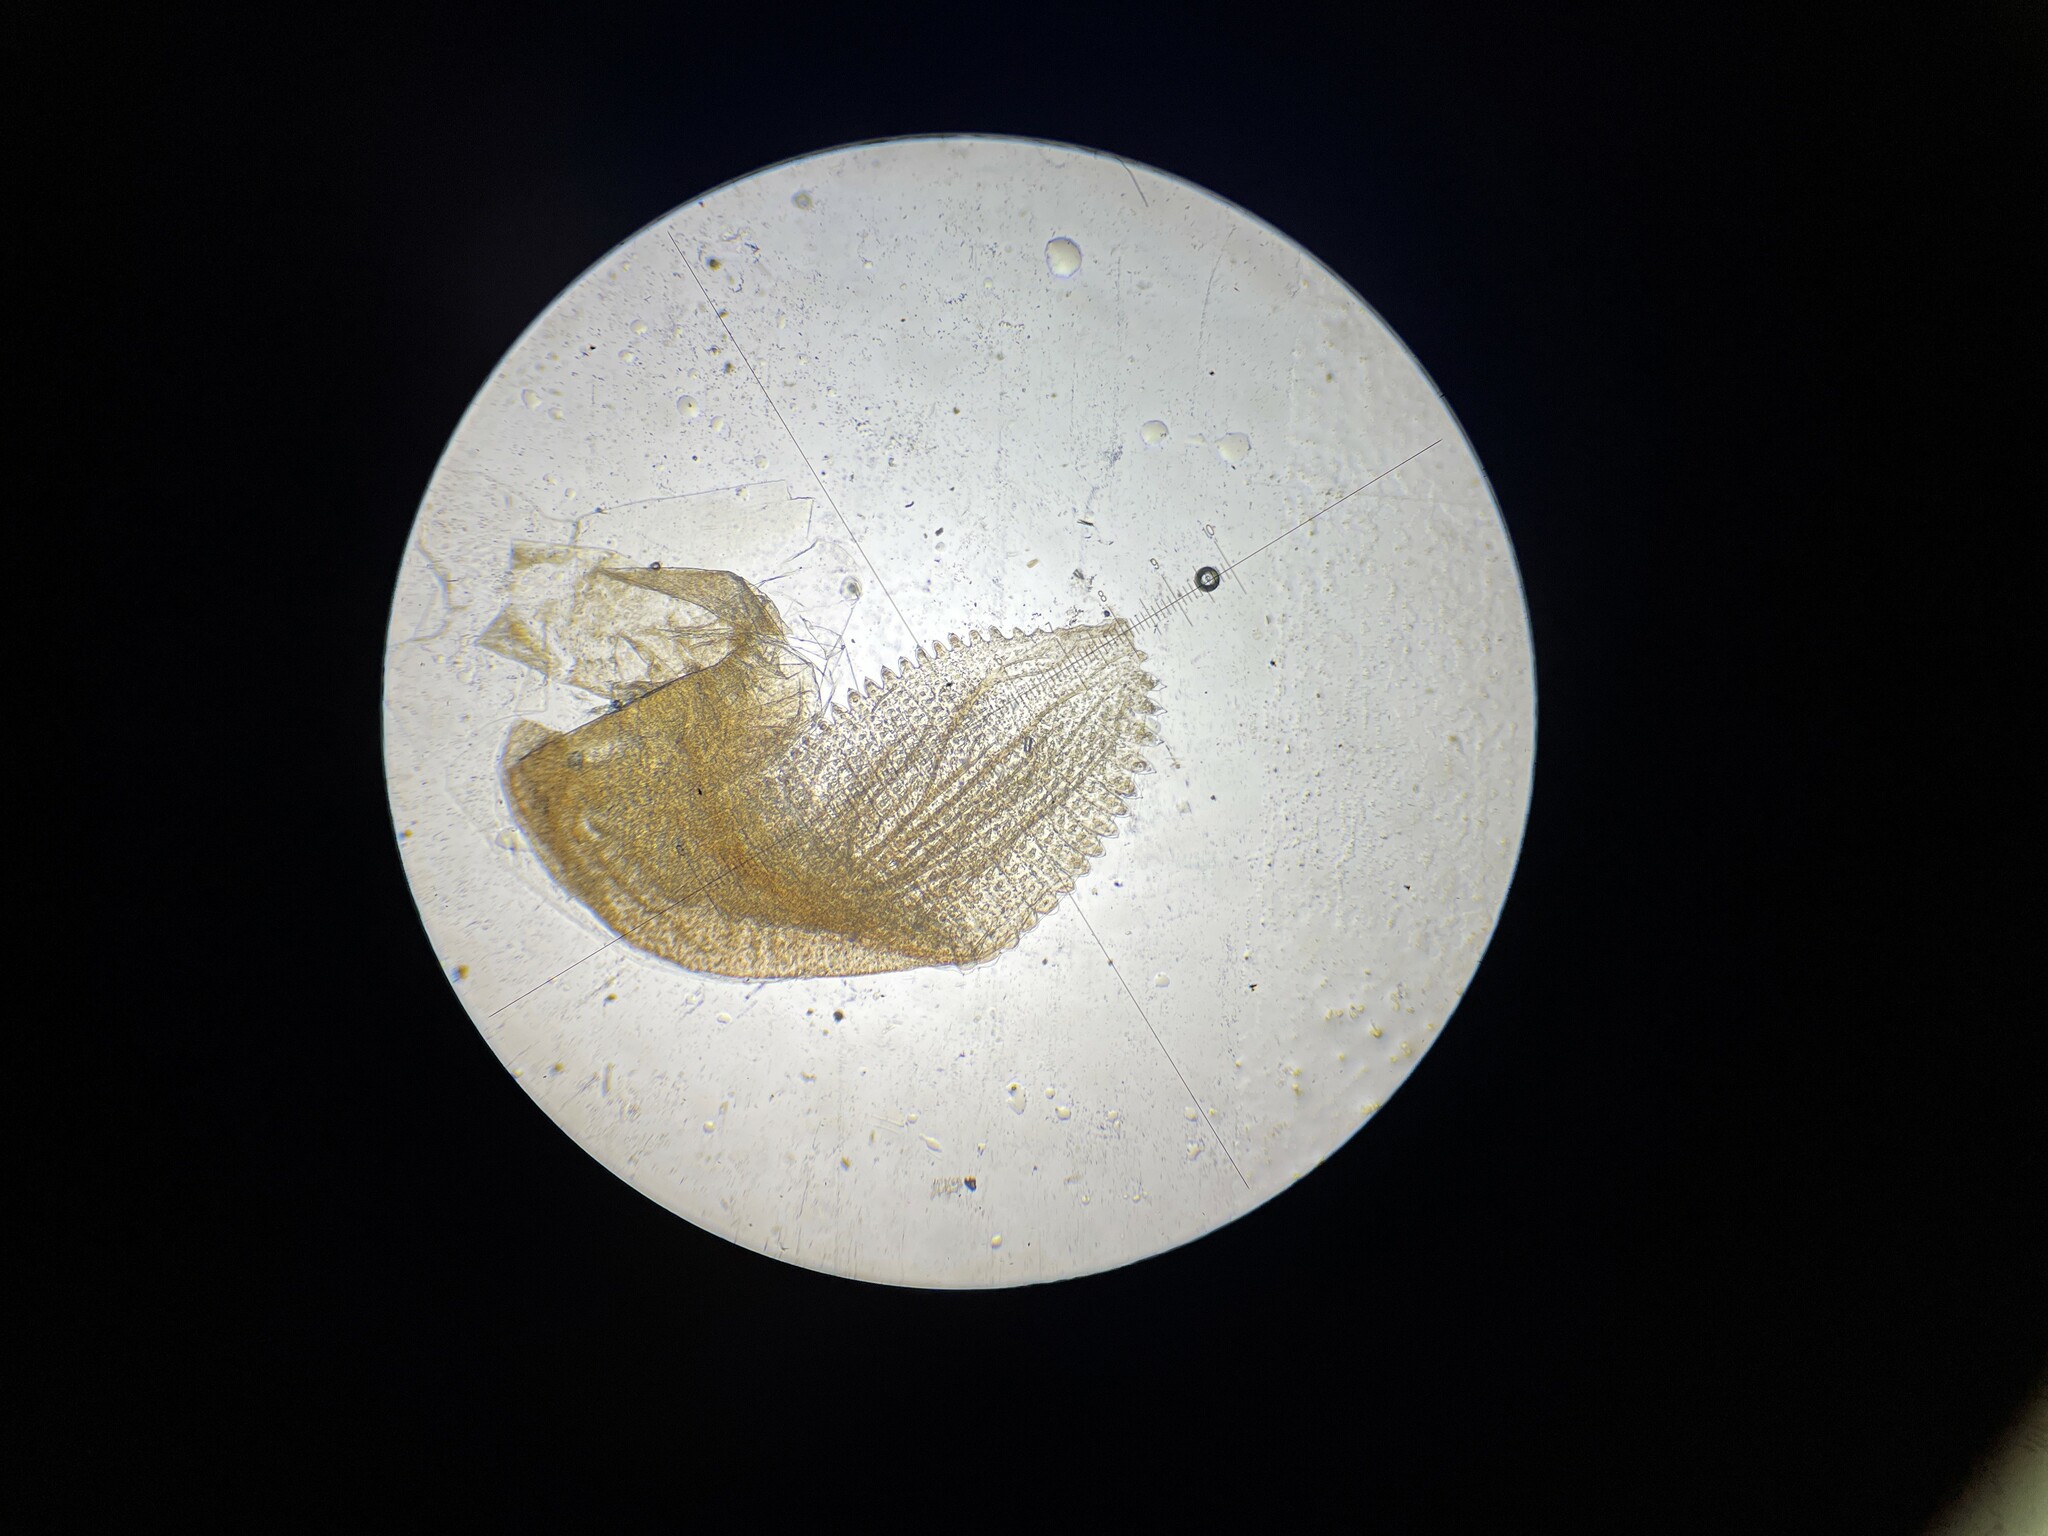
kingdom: Animalia
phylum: Arthropoda
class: Branchiopoda
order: Anostraca
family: Chirocephalidae
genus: Eubranchipus
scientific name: Eubranchipus neglectus
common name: Neglected fairy shrimp
